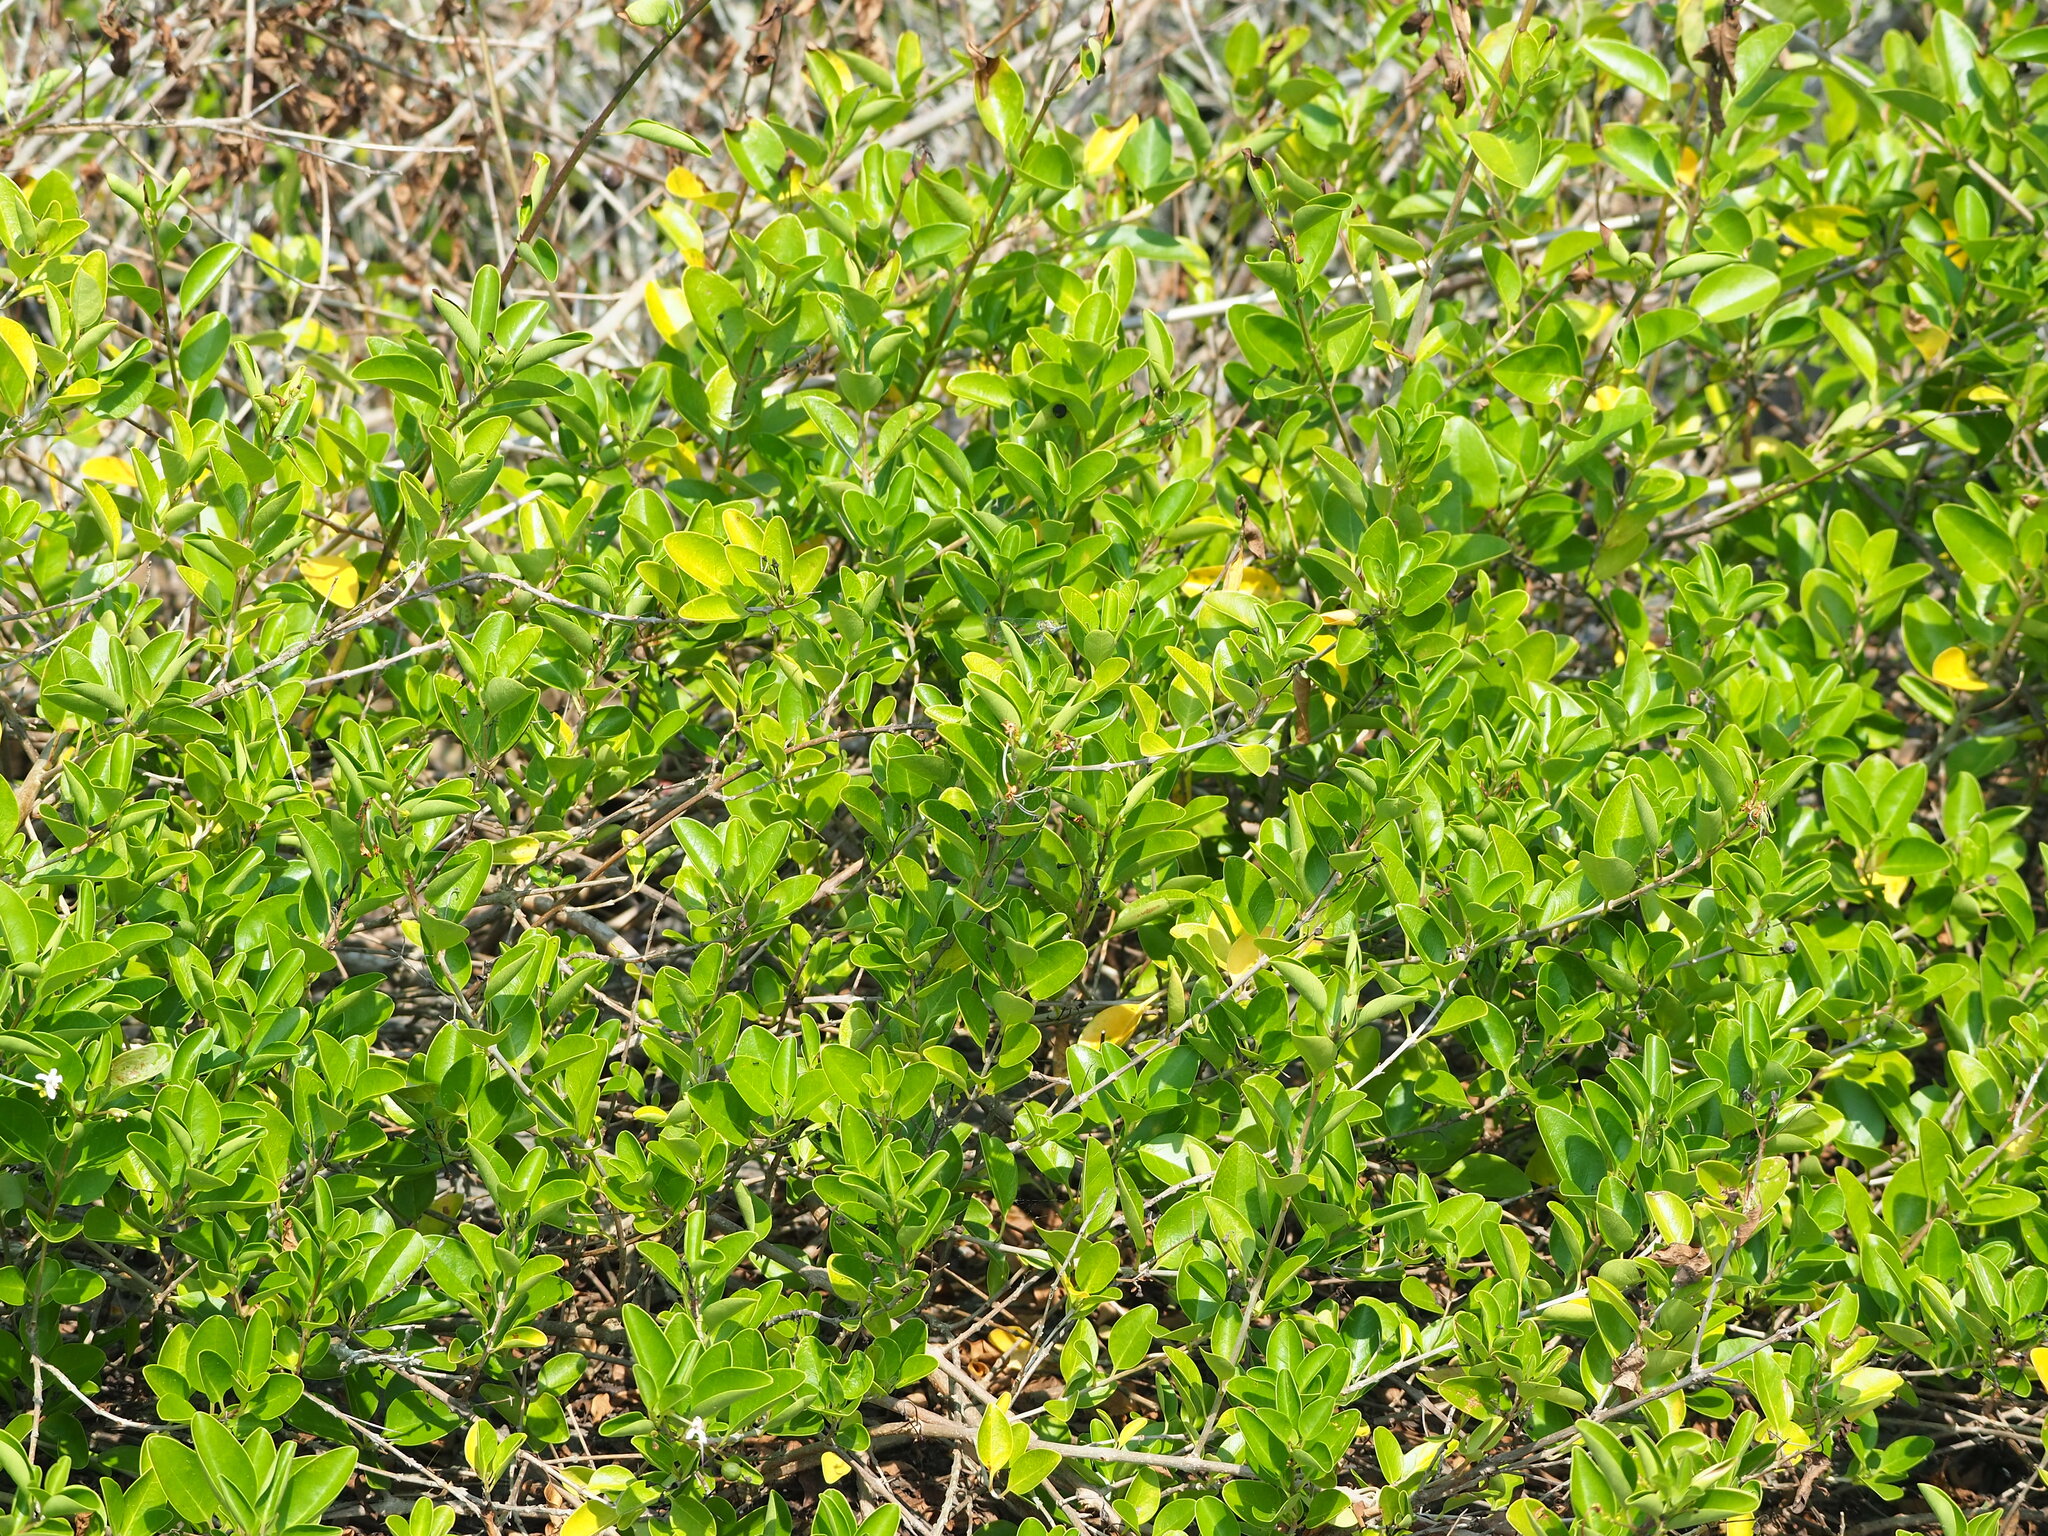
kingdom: Plantae
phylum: Tracheophyta
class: Magnoliopsida
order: Lamiales
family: Lamiaceae
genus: Volkameria
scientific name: Volkameria inermis
